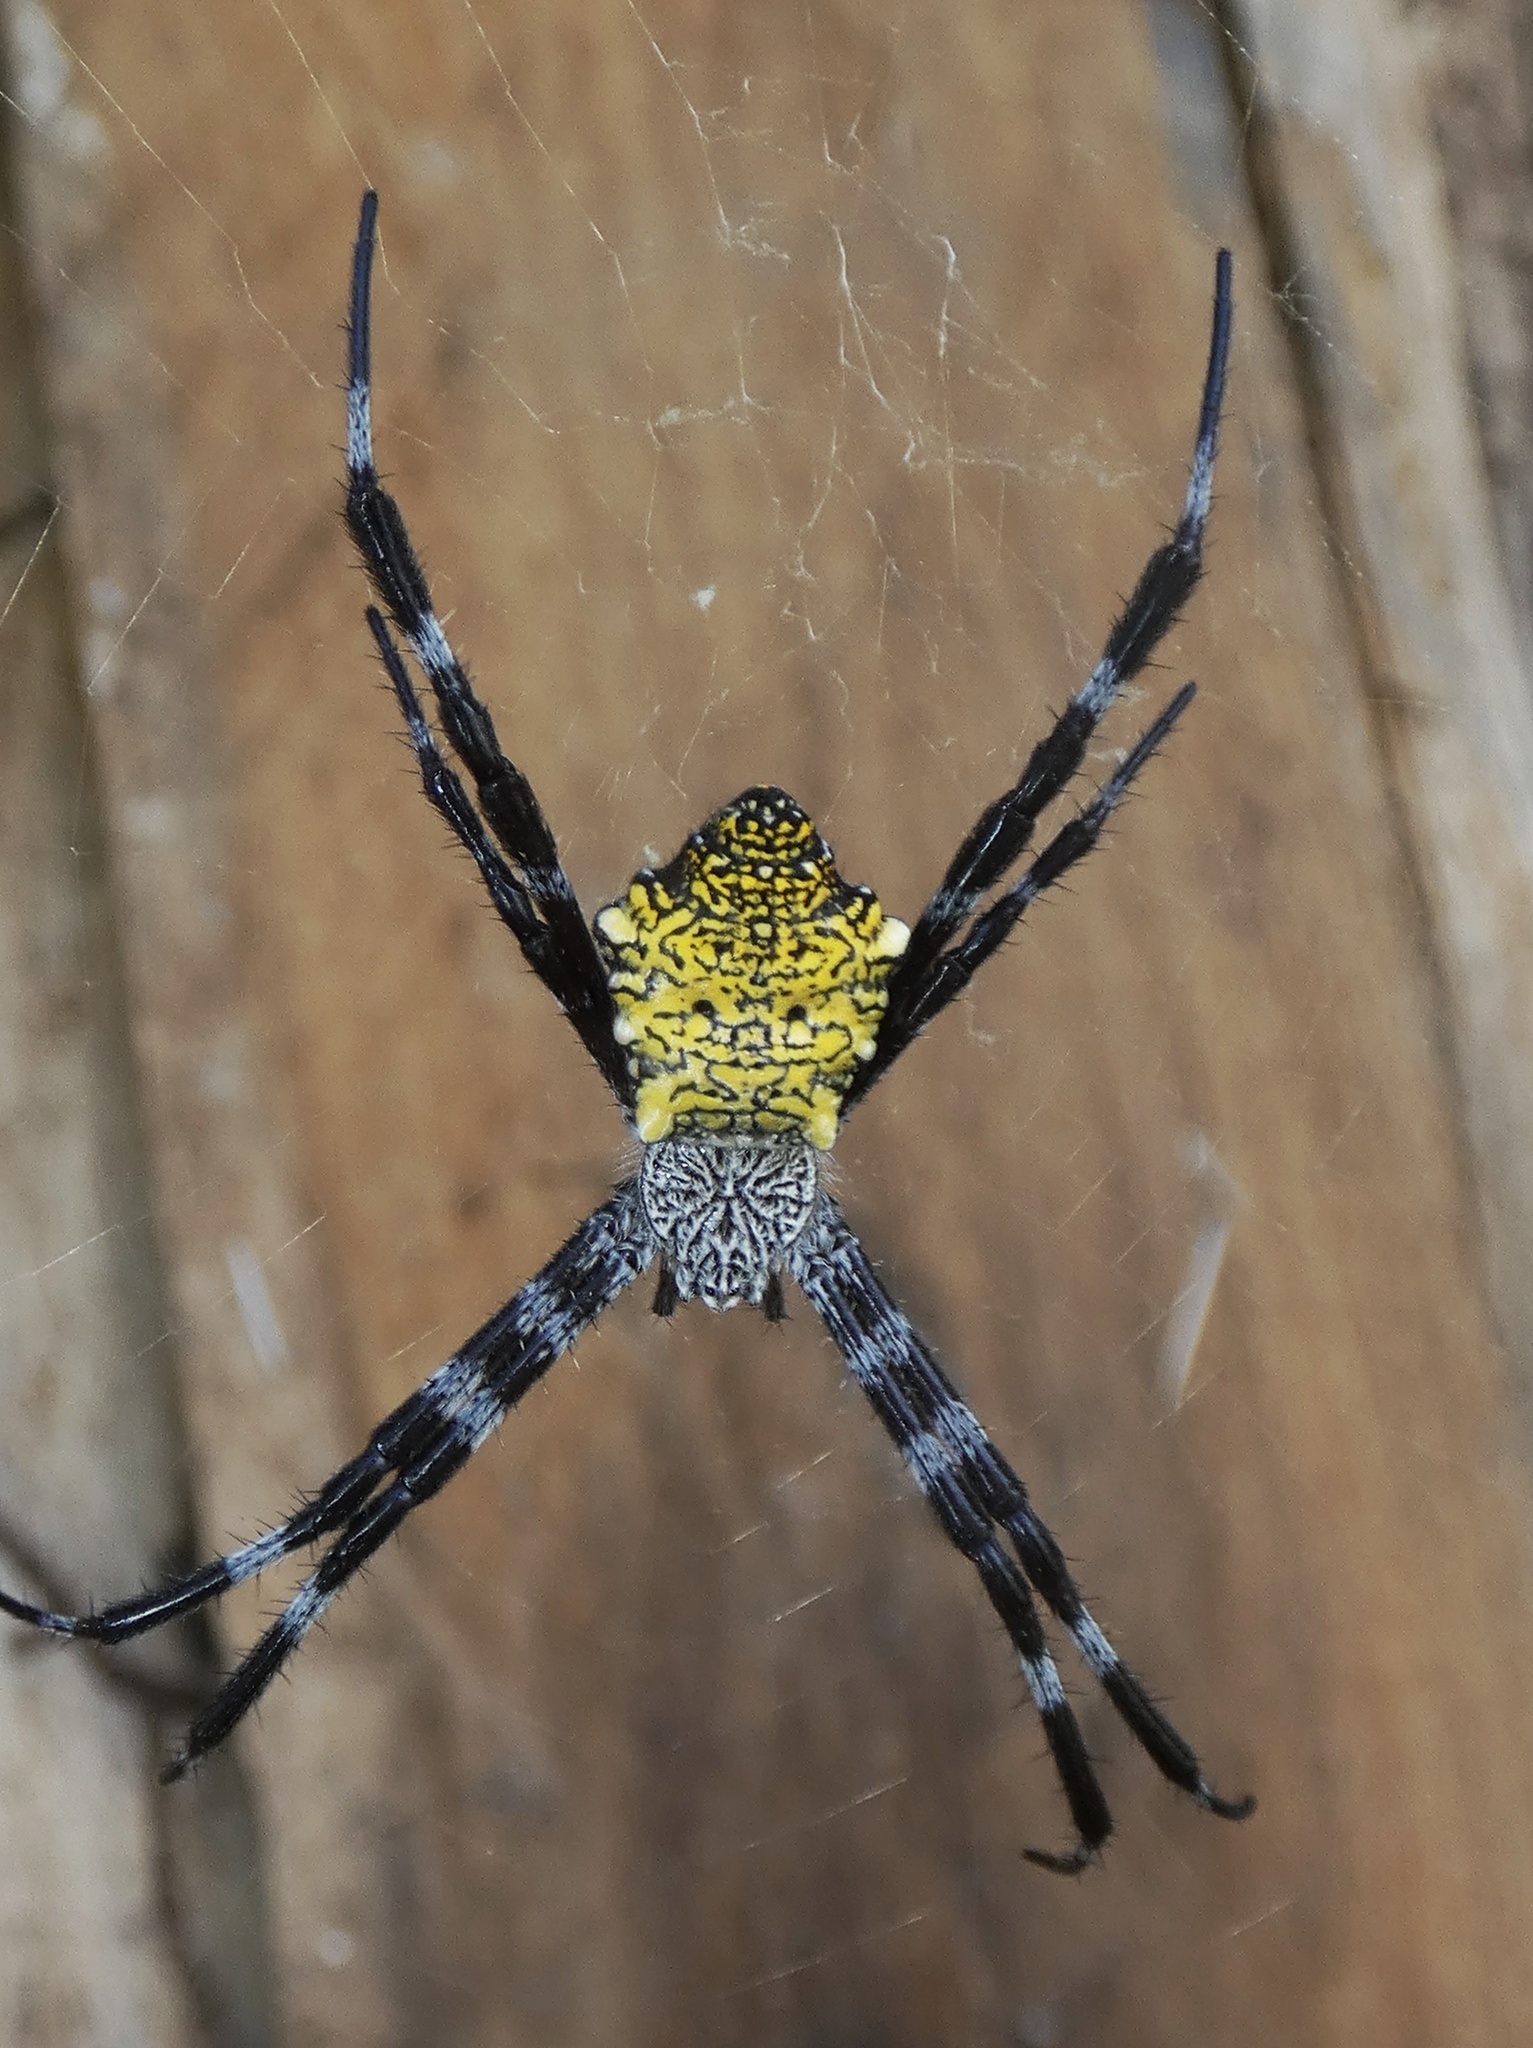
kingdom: Animalia
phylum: Arthropoda
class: Arachnida
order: Araneae
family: Araneidae
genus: Argiope
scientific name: Argiope appensa
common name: Garden spider
